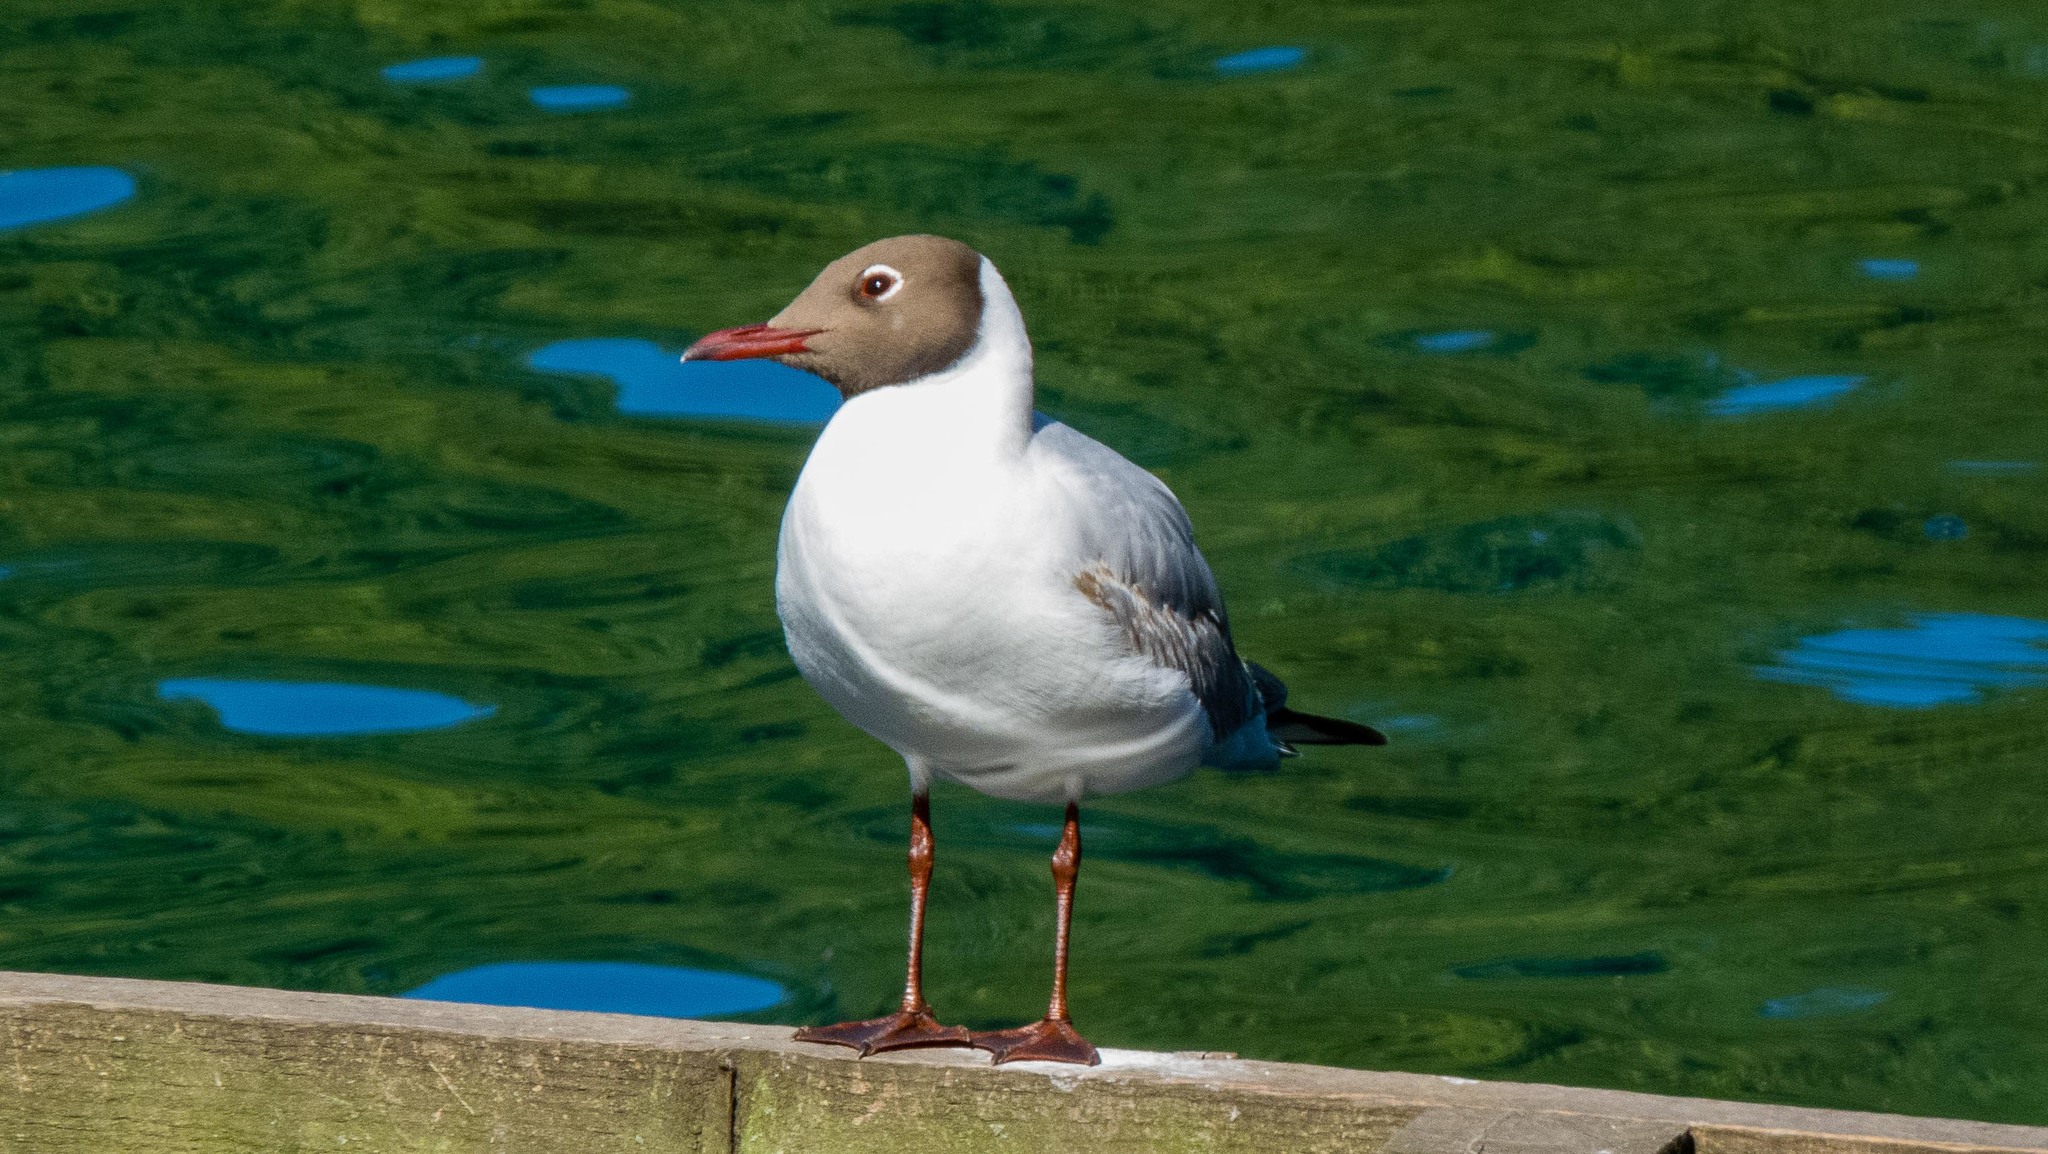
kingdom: Animalia
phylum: Chordata
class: Aves
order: Charadriiformes
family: Laridae
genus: Chroicocephalus
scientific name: Chroicocephalus ridibundus
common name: Black-headed gull
